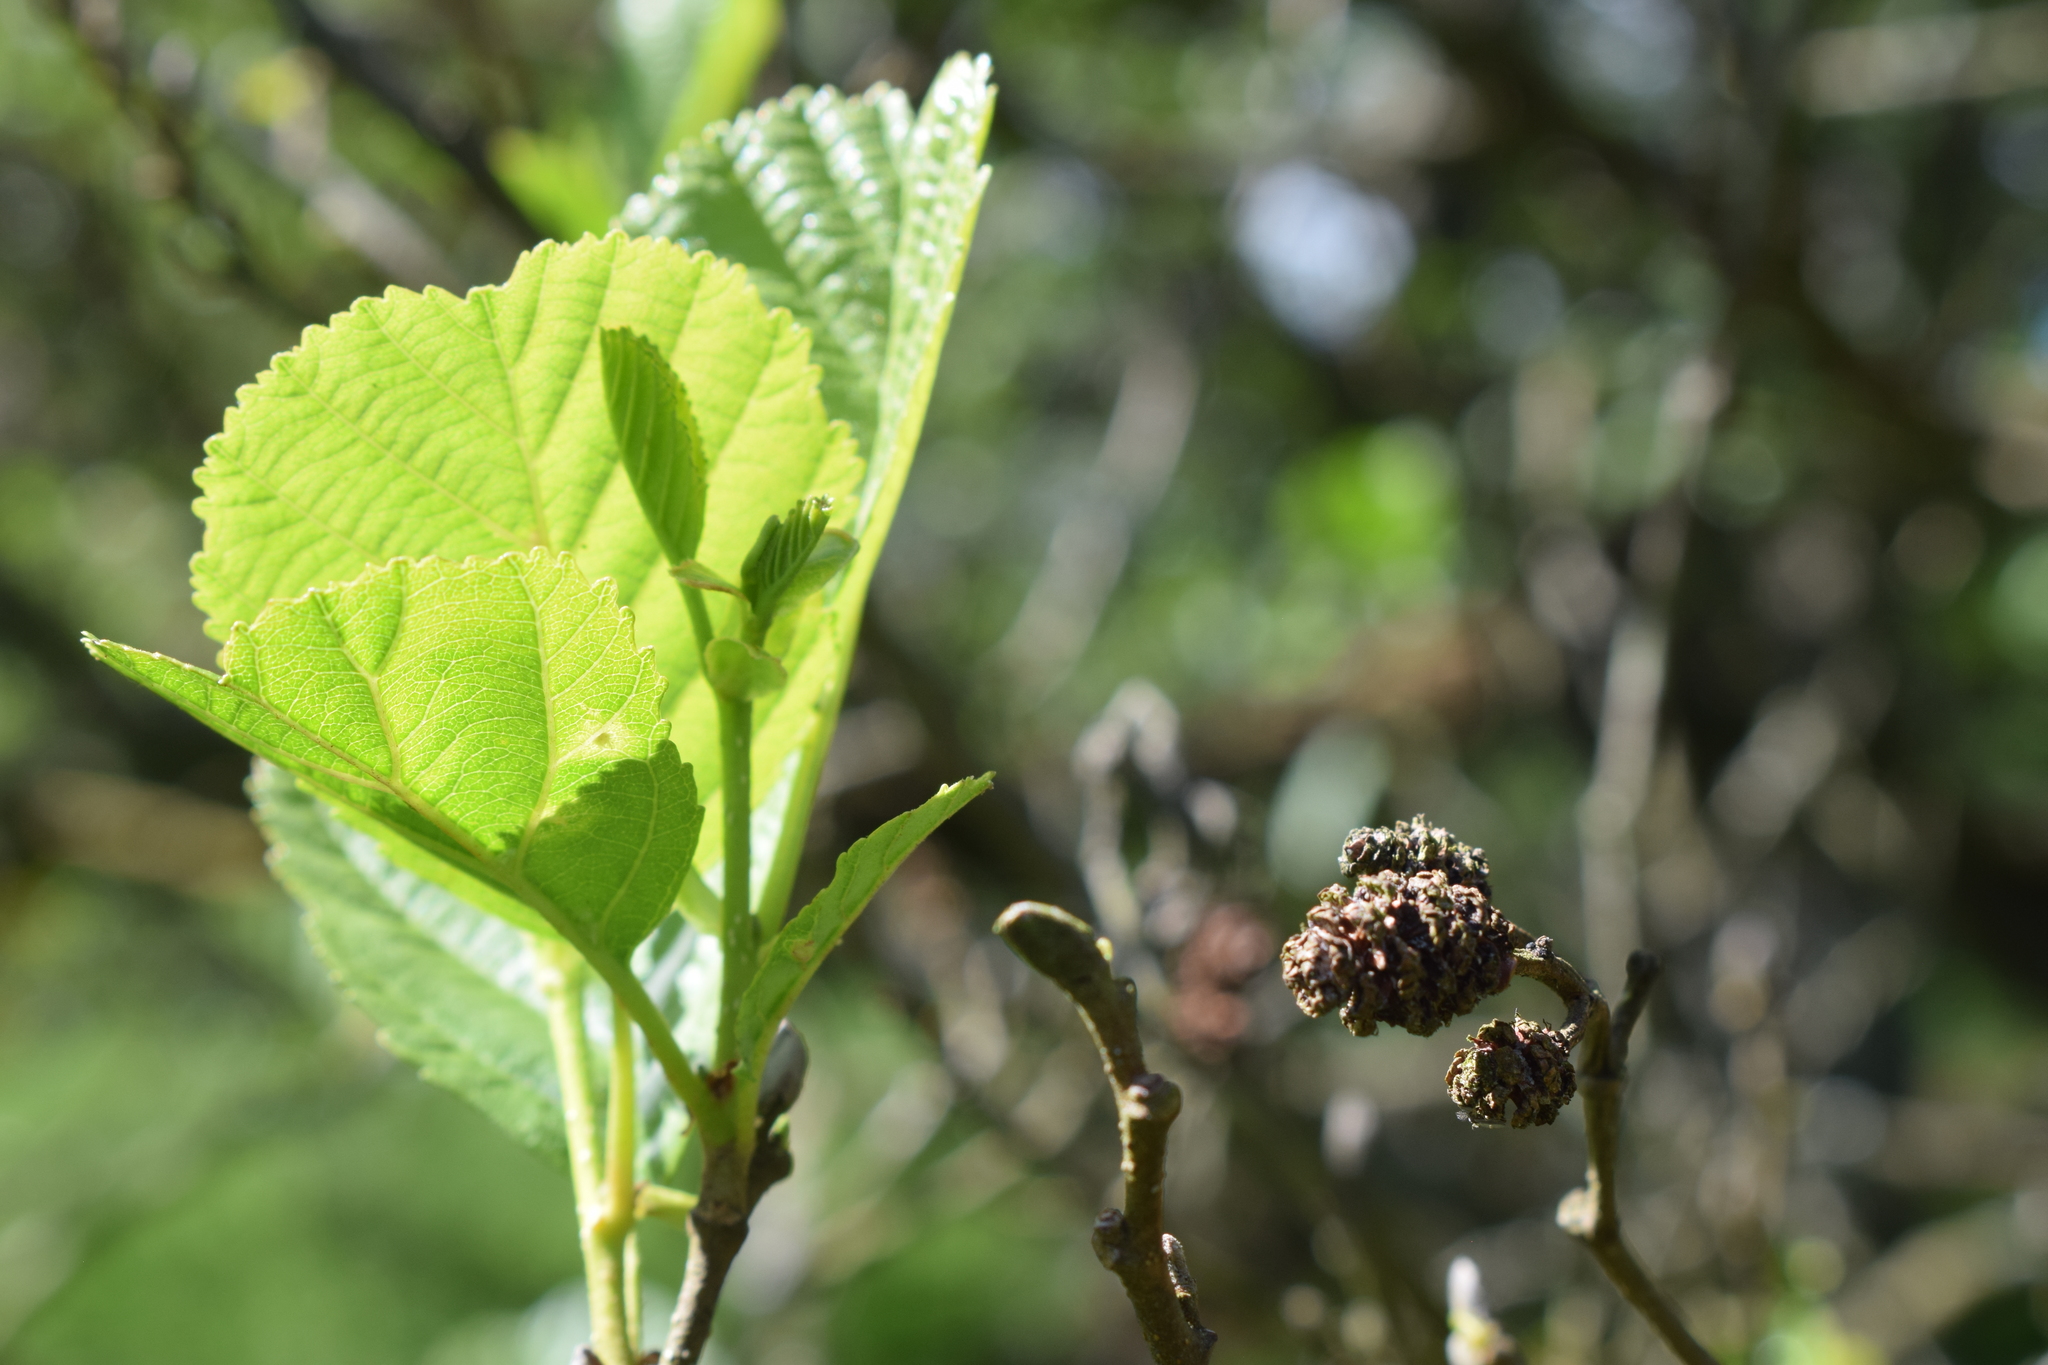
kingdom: Plantae
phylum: Tracheophyta
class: Magnoliopsida
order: Fagales
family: Betulaceae
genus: Alnus
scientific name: Alnus glutinosa
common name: Black alder
